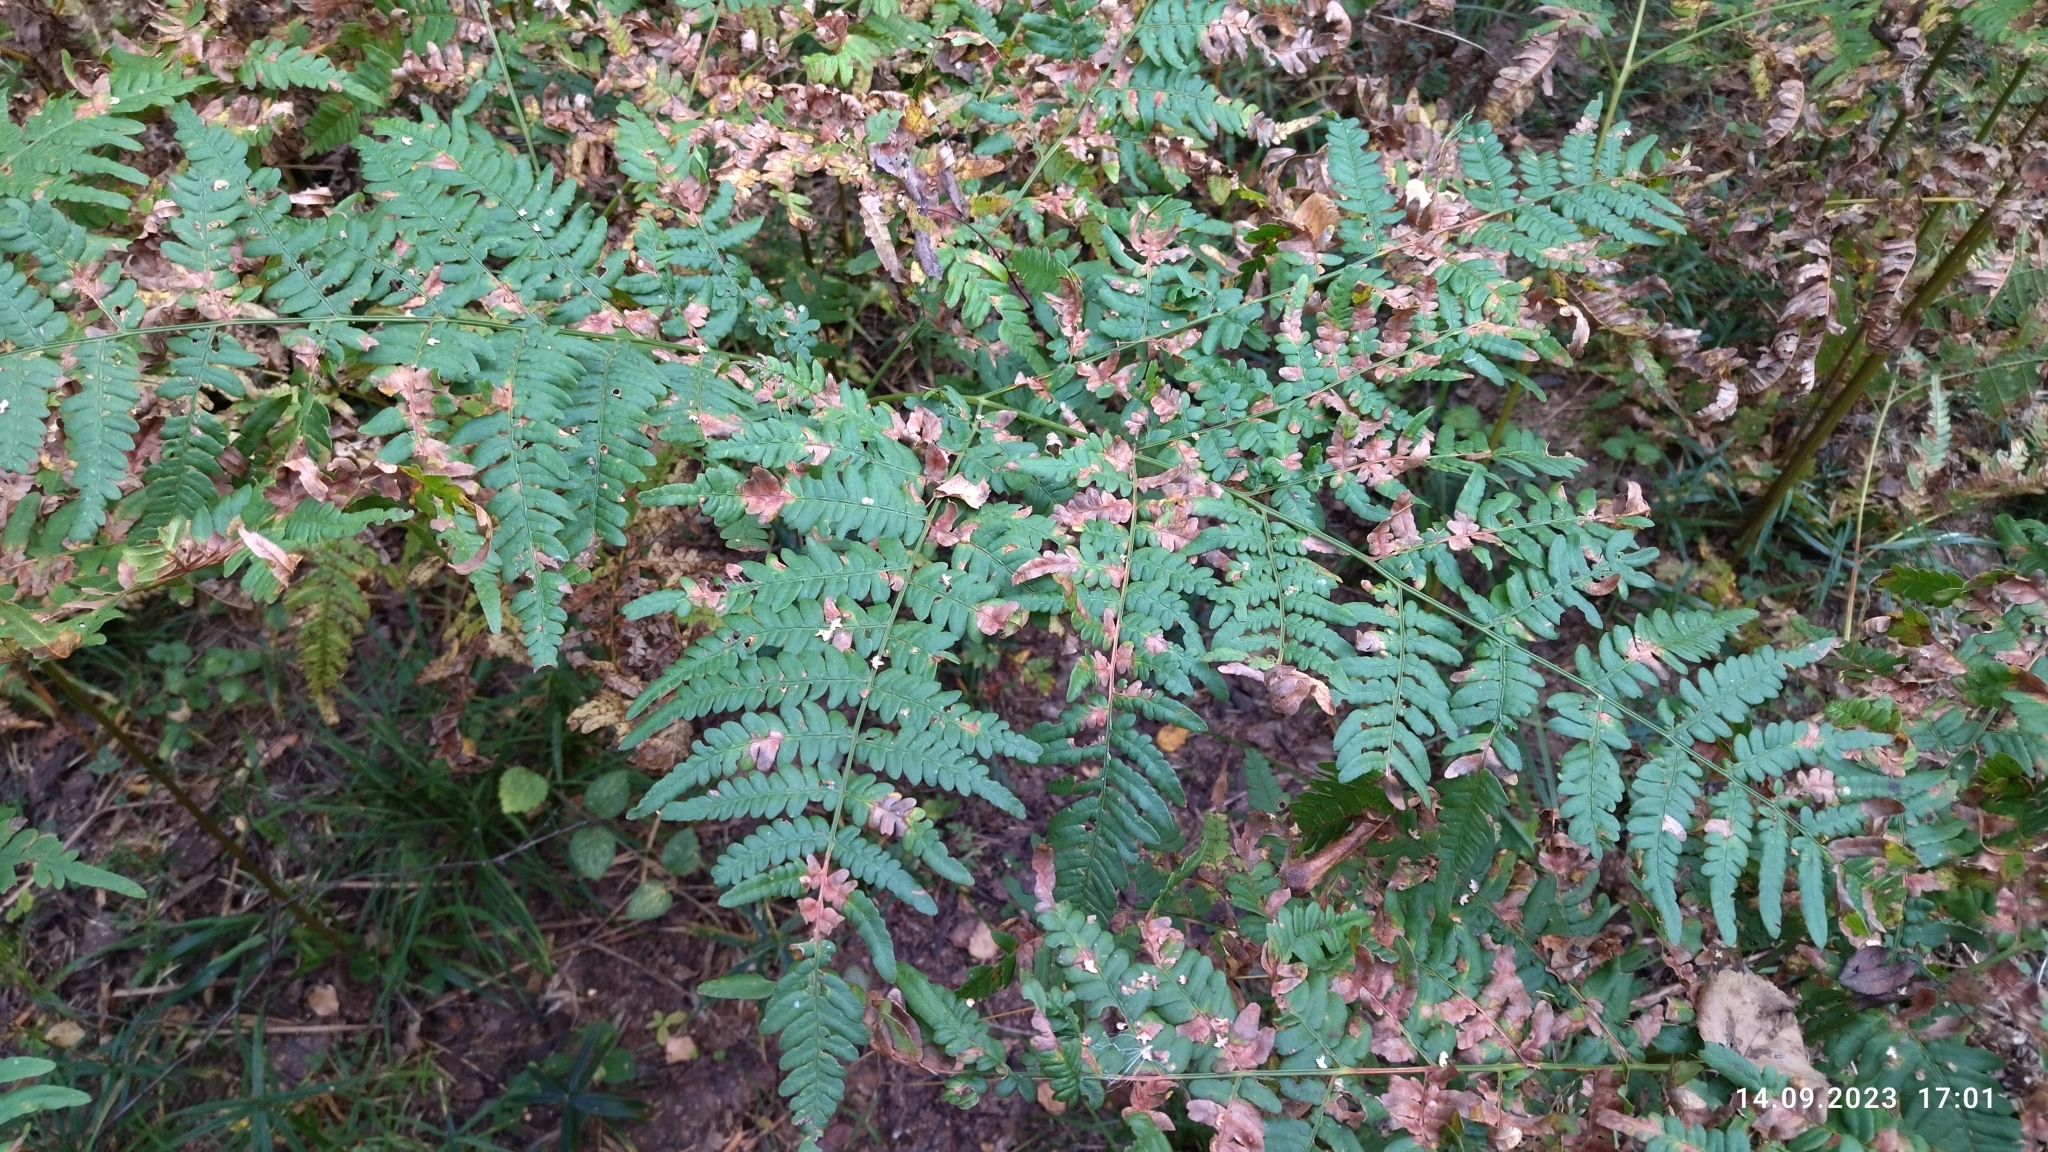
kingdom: Plantae
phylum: Tracheophyta
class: Polypodiopsida
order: Polypodiales
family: Dennstaedtiaceae
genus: Pteridium
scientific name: Pteridium aquilinum
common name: Bracken
